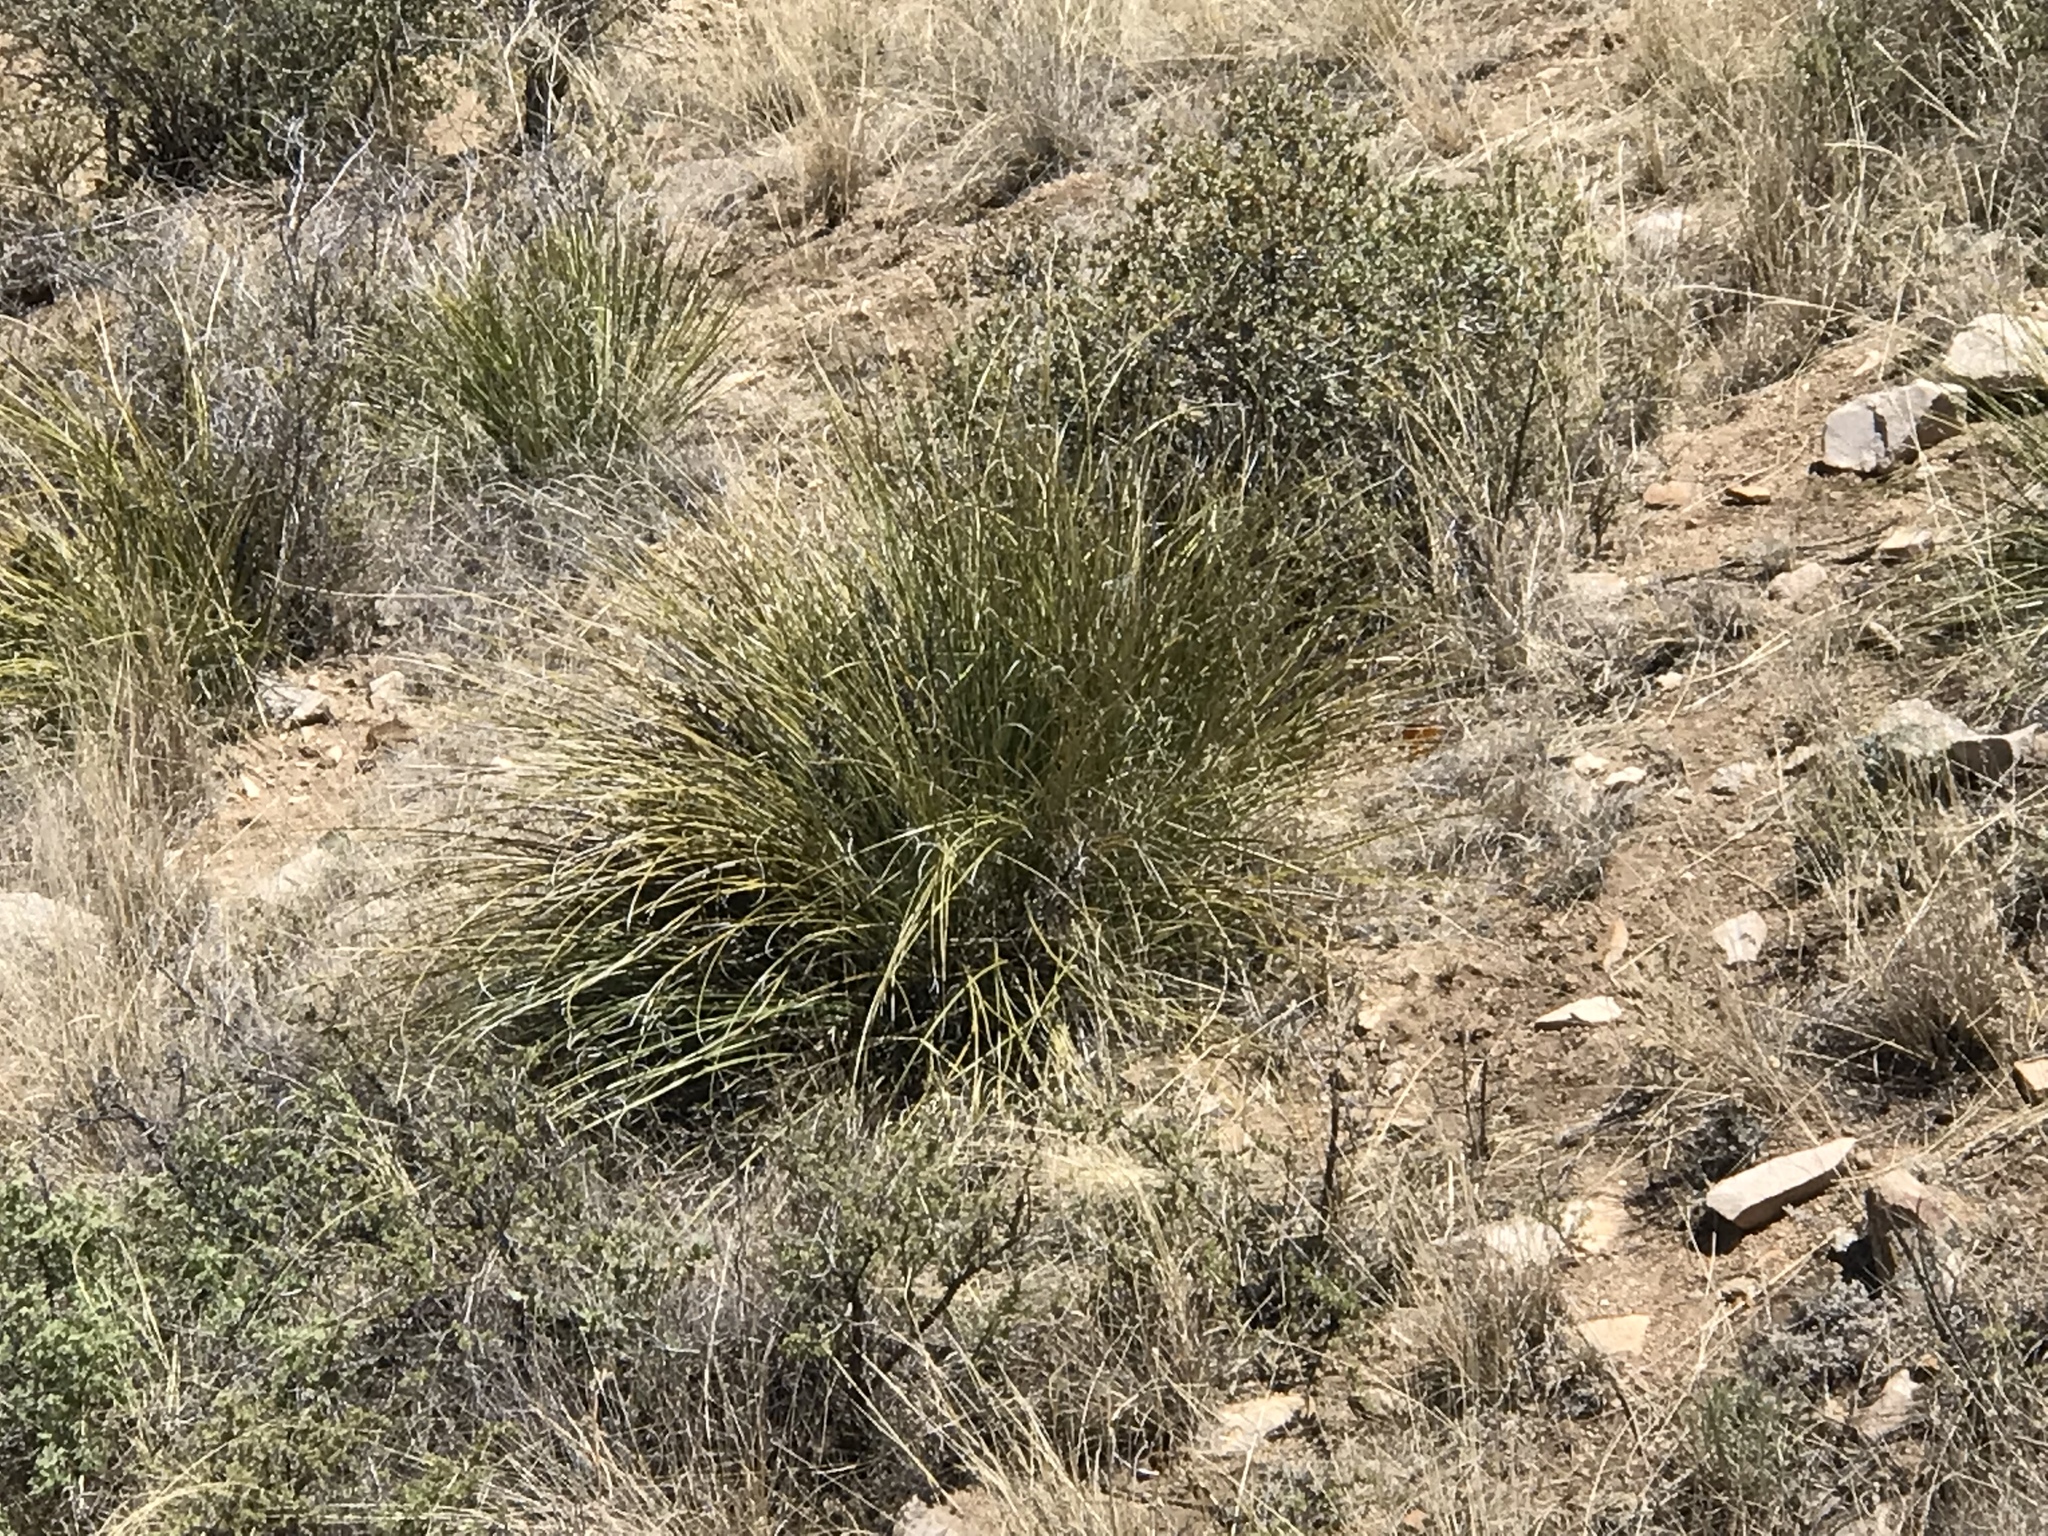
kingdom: Plantae
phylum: Tracheophyta
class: Liliopsida
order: Asparagales
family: Asparagaceae
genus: Nolina
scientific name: Nolina microcarpa
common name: Bear-grass
